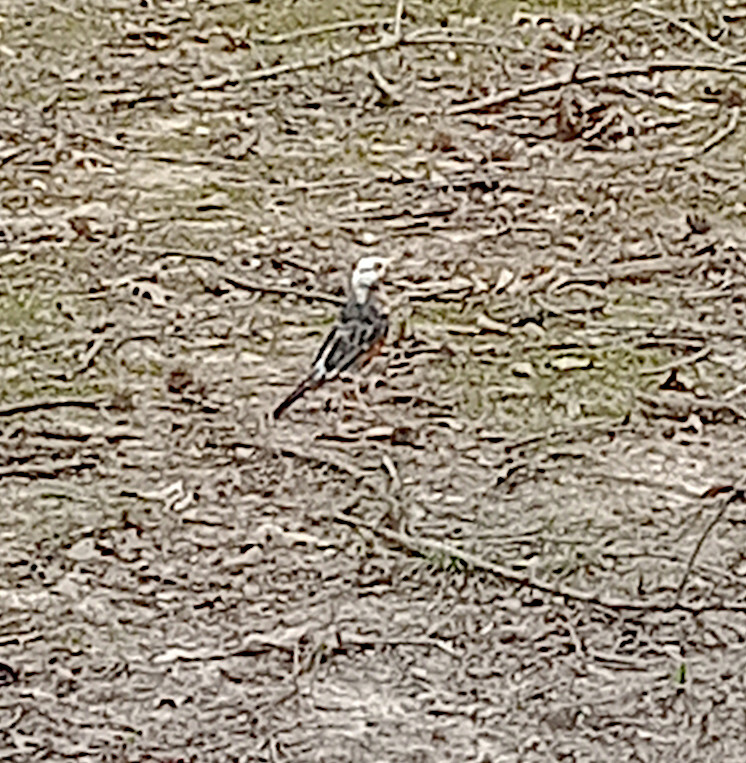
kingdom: Animalia
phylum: Chordata
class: Aves
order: Passeriformes
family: Turdidae
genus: Turdus
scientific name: Turdus migratorius
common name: American robin
